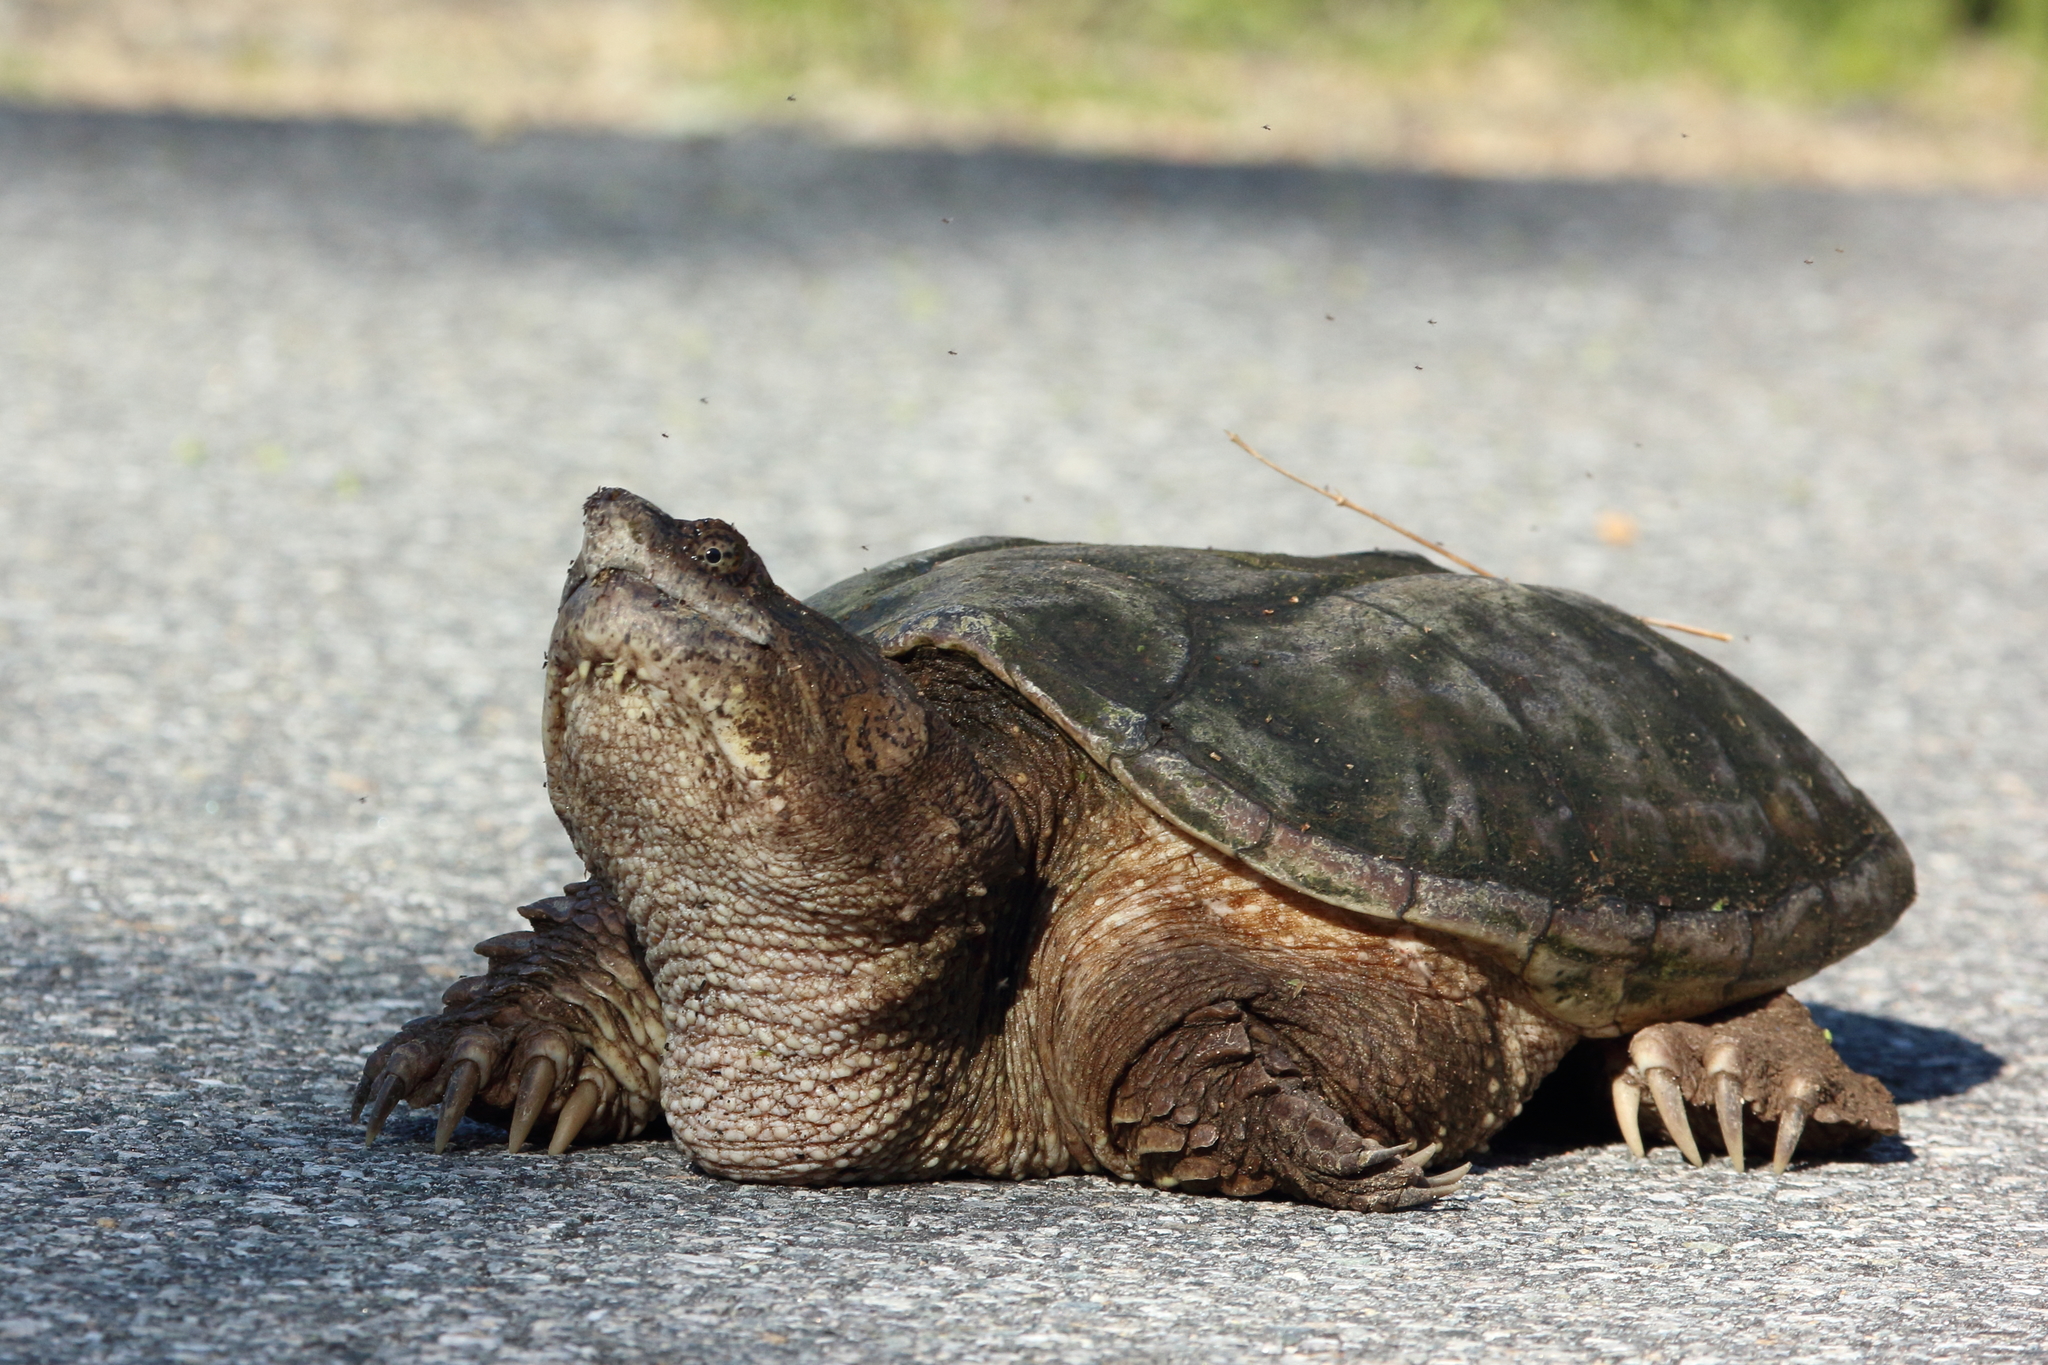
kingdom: Animalia
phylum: Chordata
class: Testudines
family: Chelydridae
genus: Chelydra
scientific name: Chelydra serpentina
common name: Common snapping turtle
